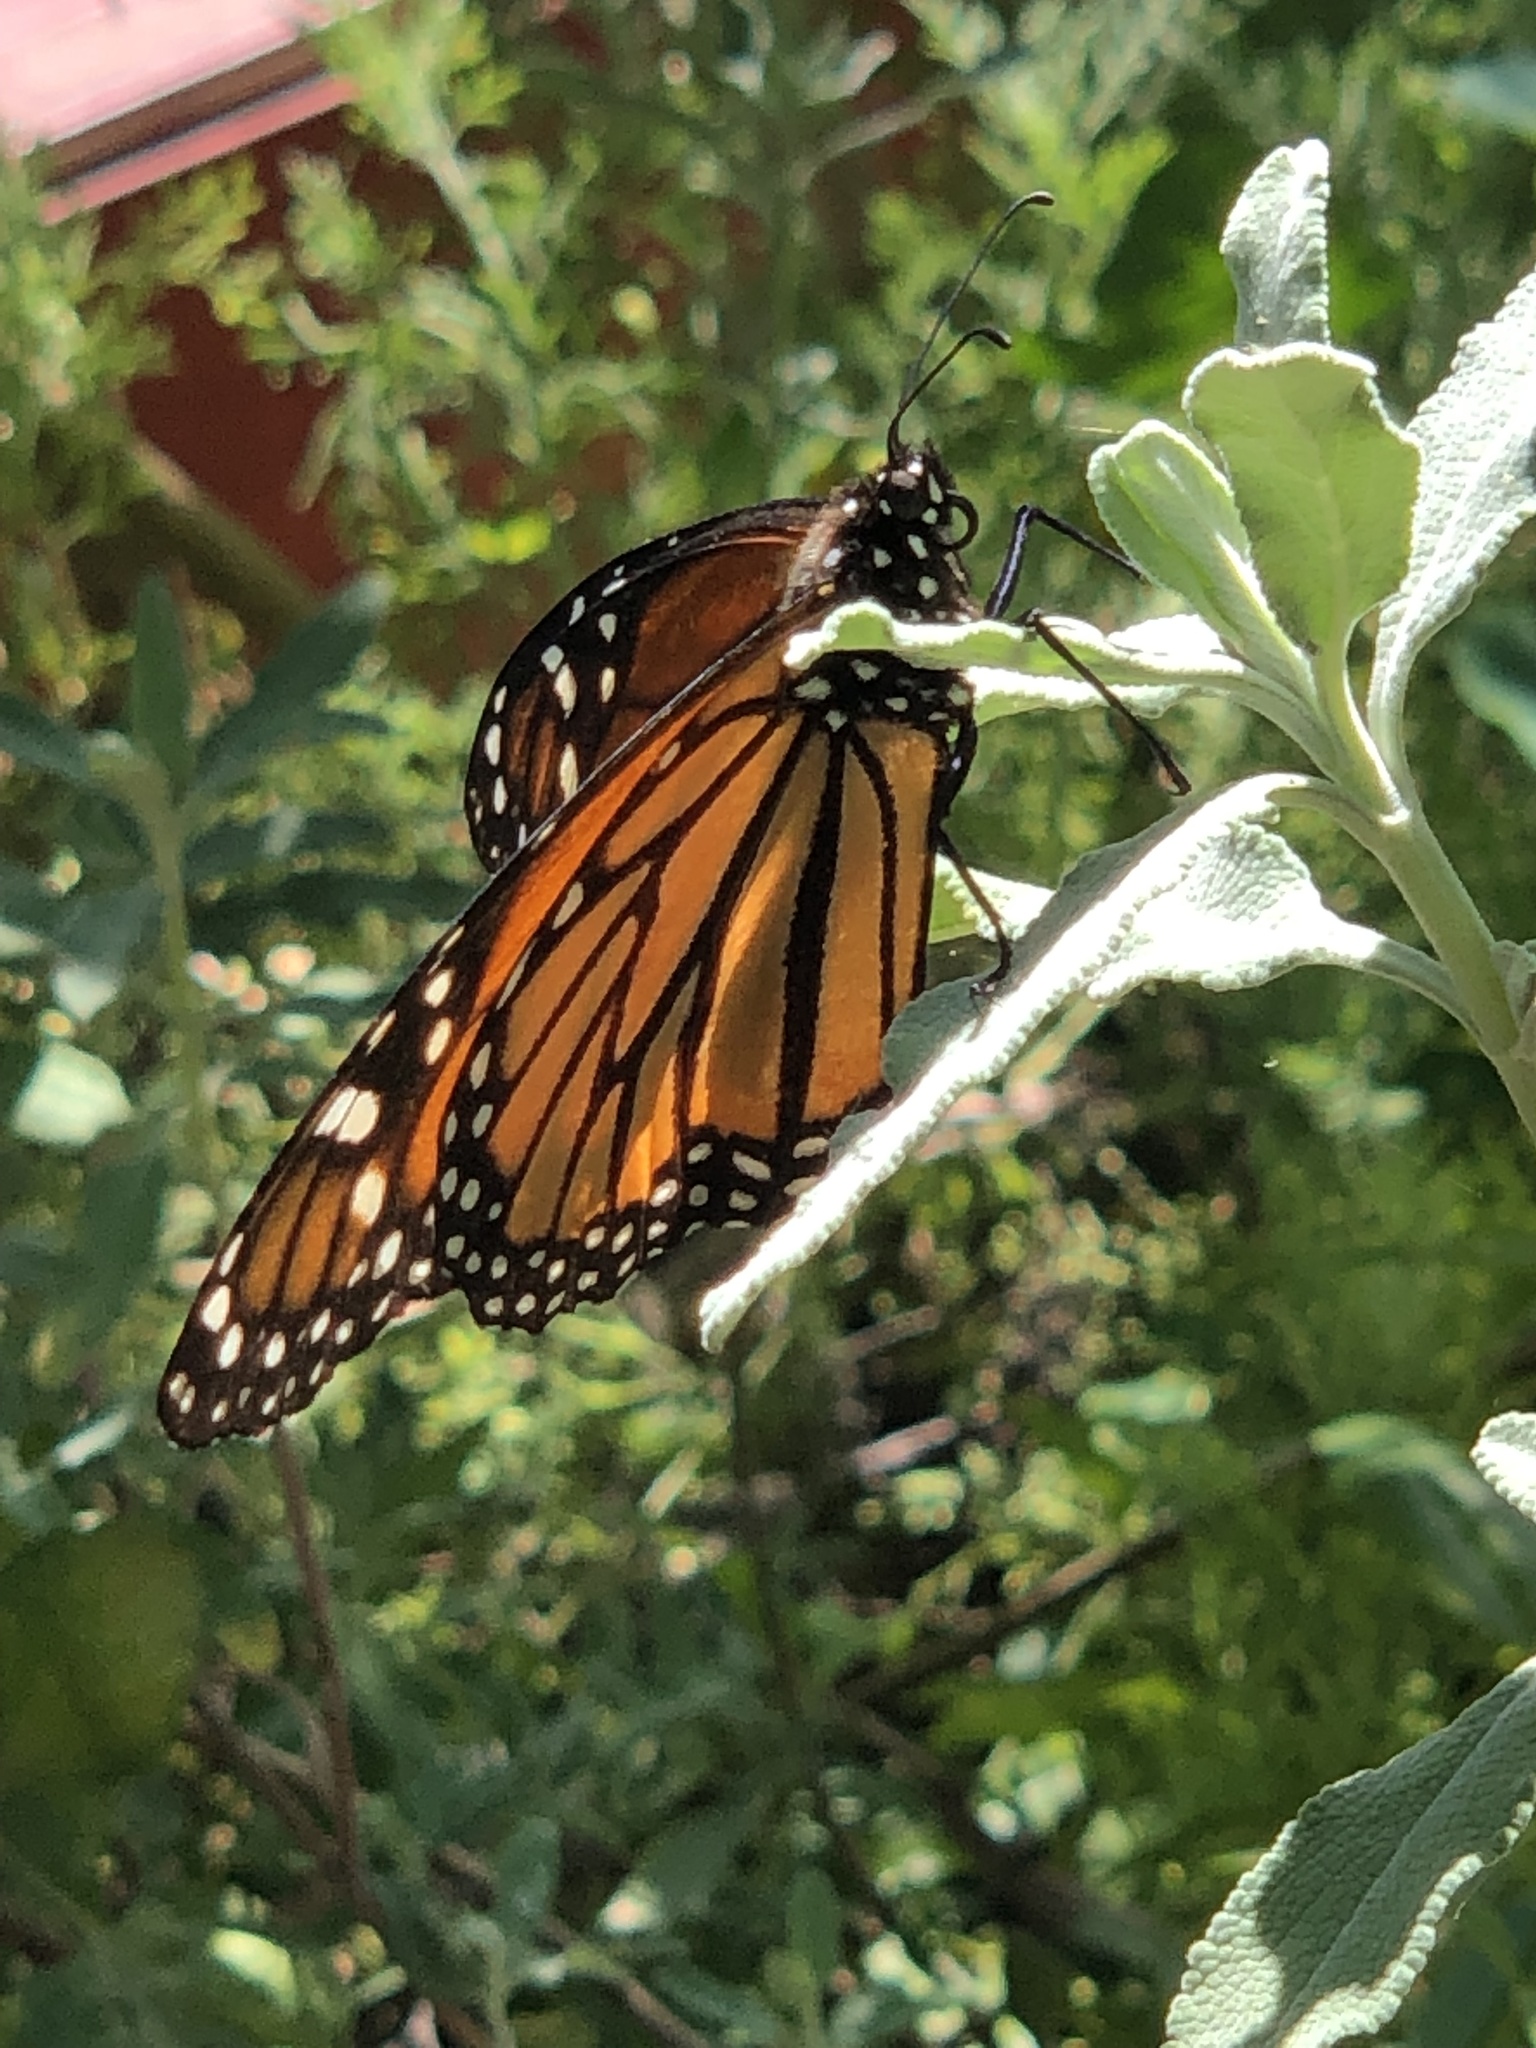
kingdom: Animalia
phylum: Arthropoda
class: Insecta
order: Lepidoptera
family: Nymphalidae
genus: Danaus
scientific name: Danaus plexippus
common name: Monarch
